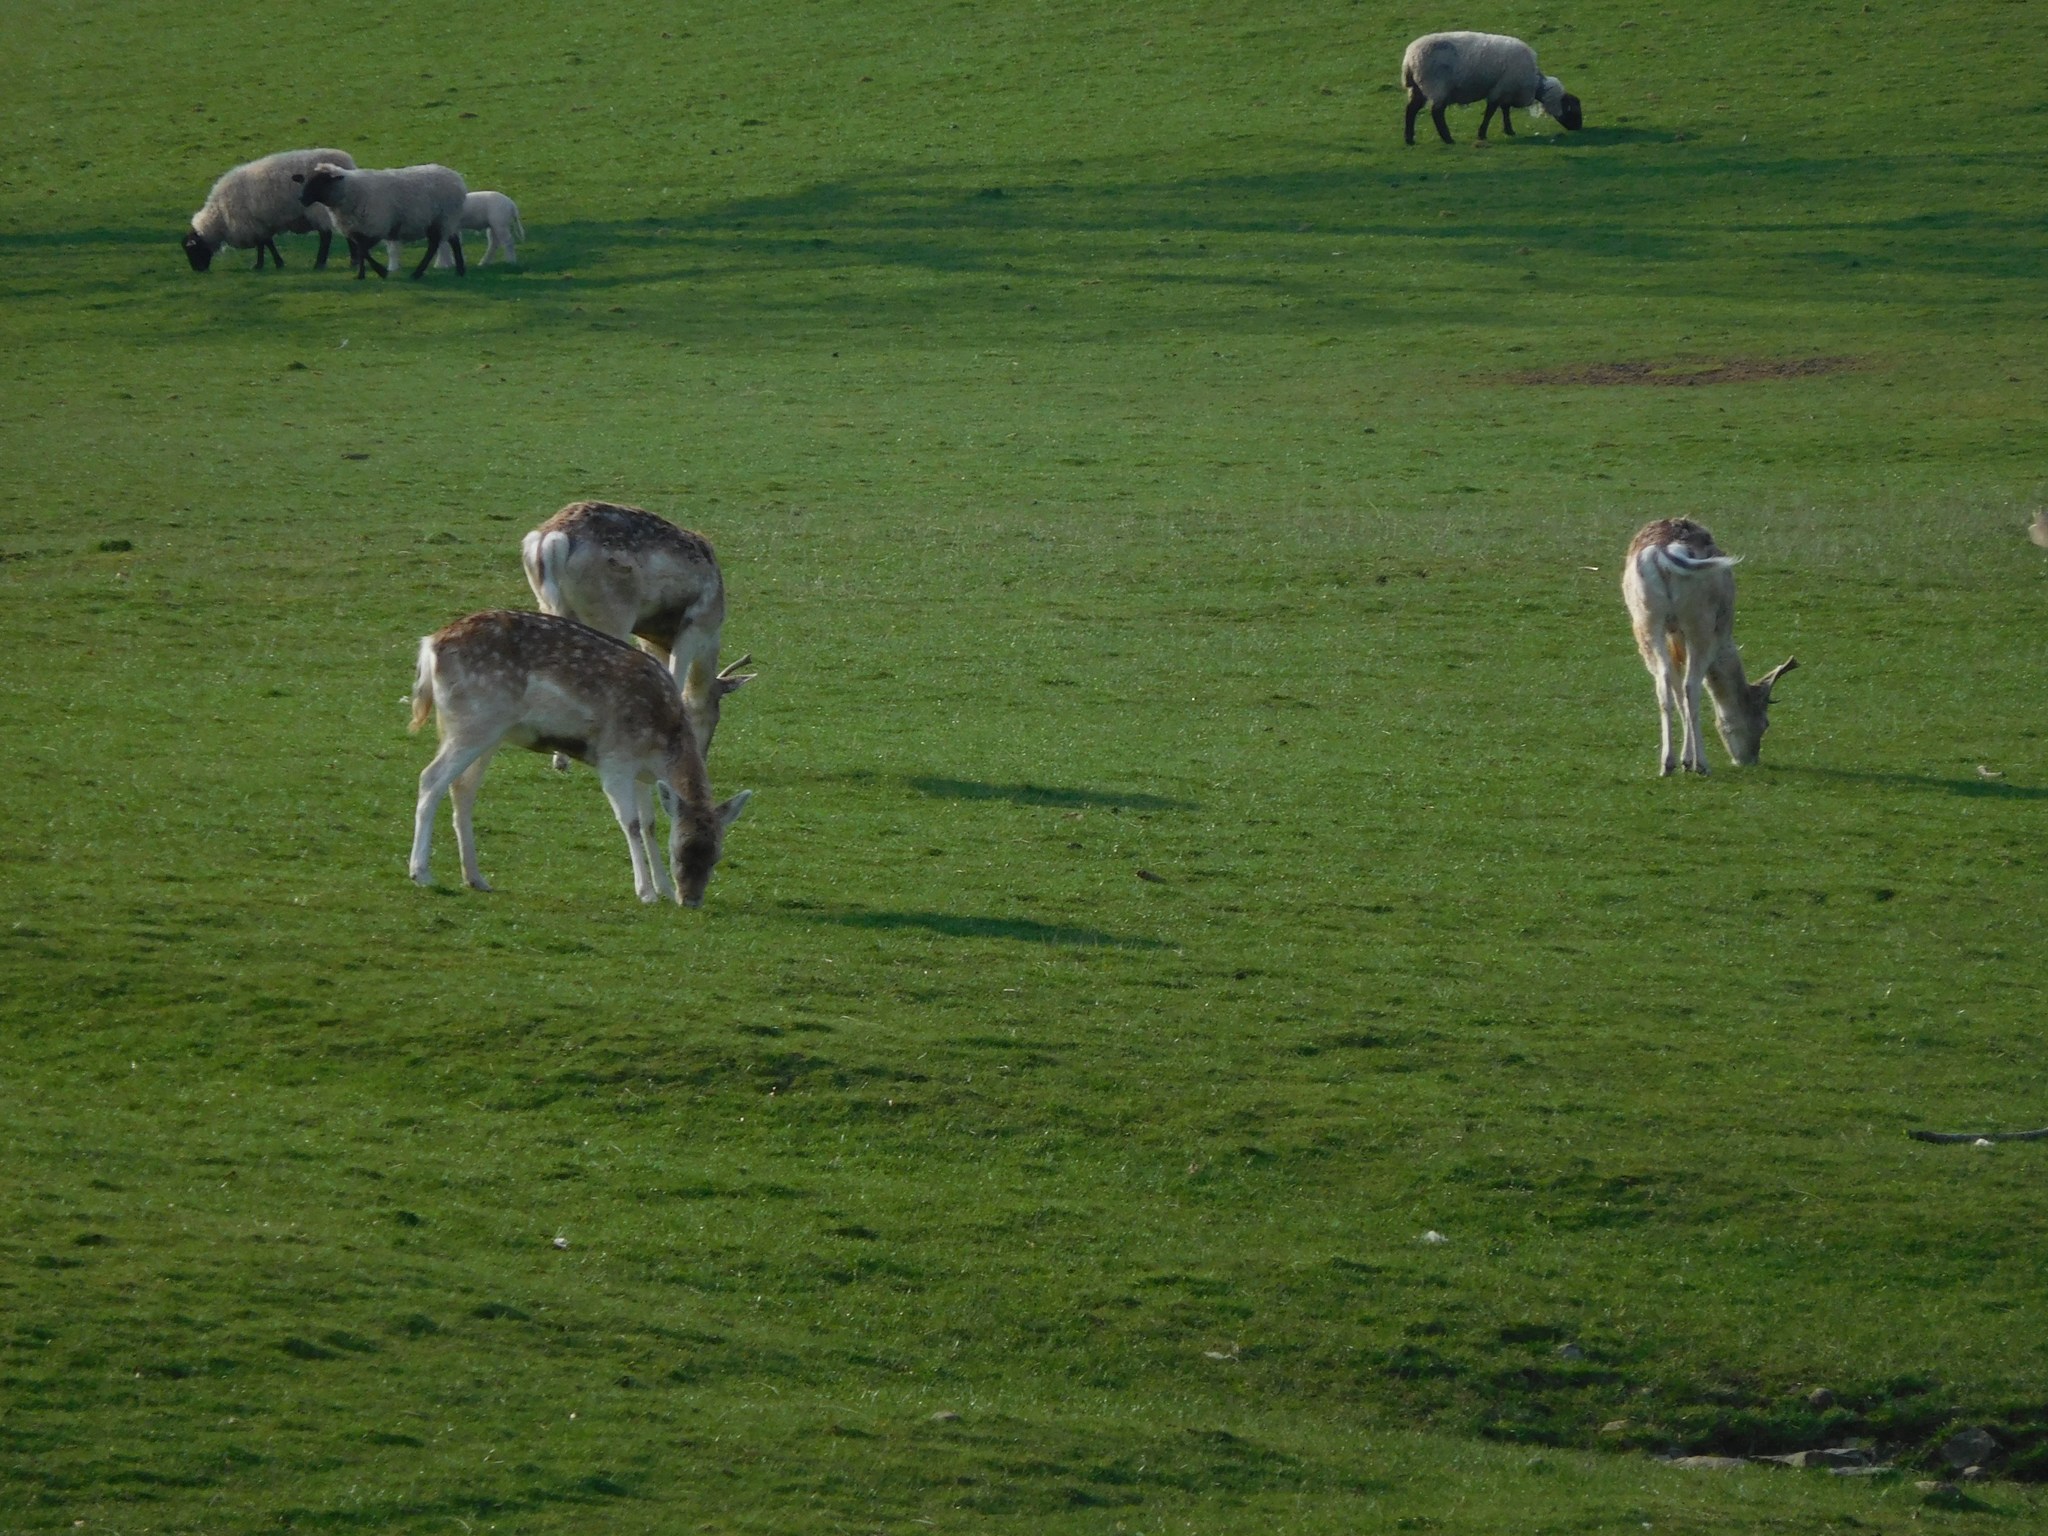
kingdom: Animalia
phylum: Chordata
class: Mammalia
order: Artiodactyla
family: Cervidae
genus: Dama
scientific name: Dama dama
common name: Fallow deer
